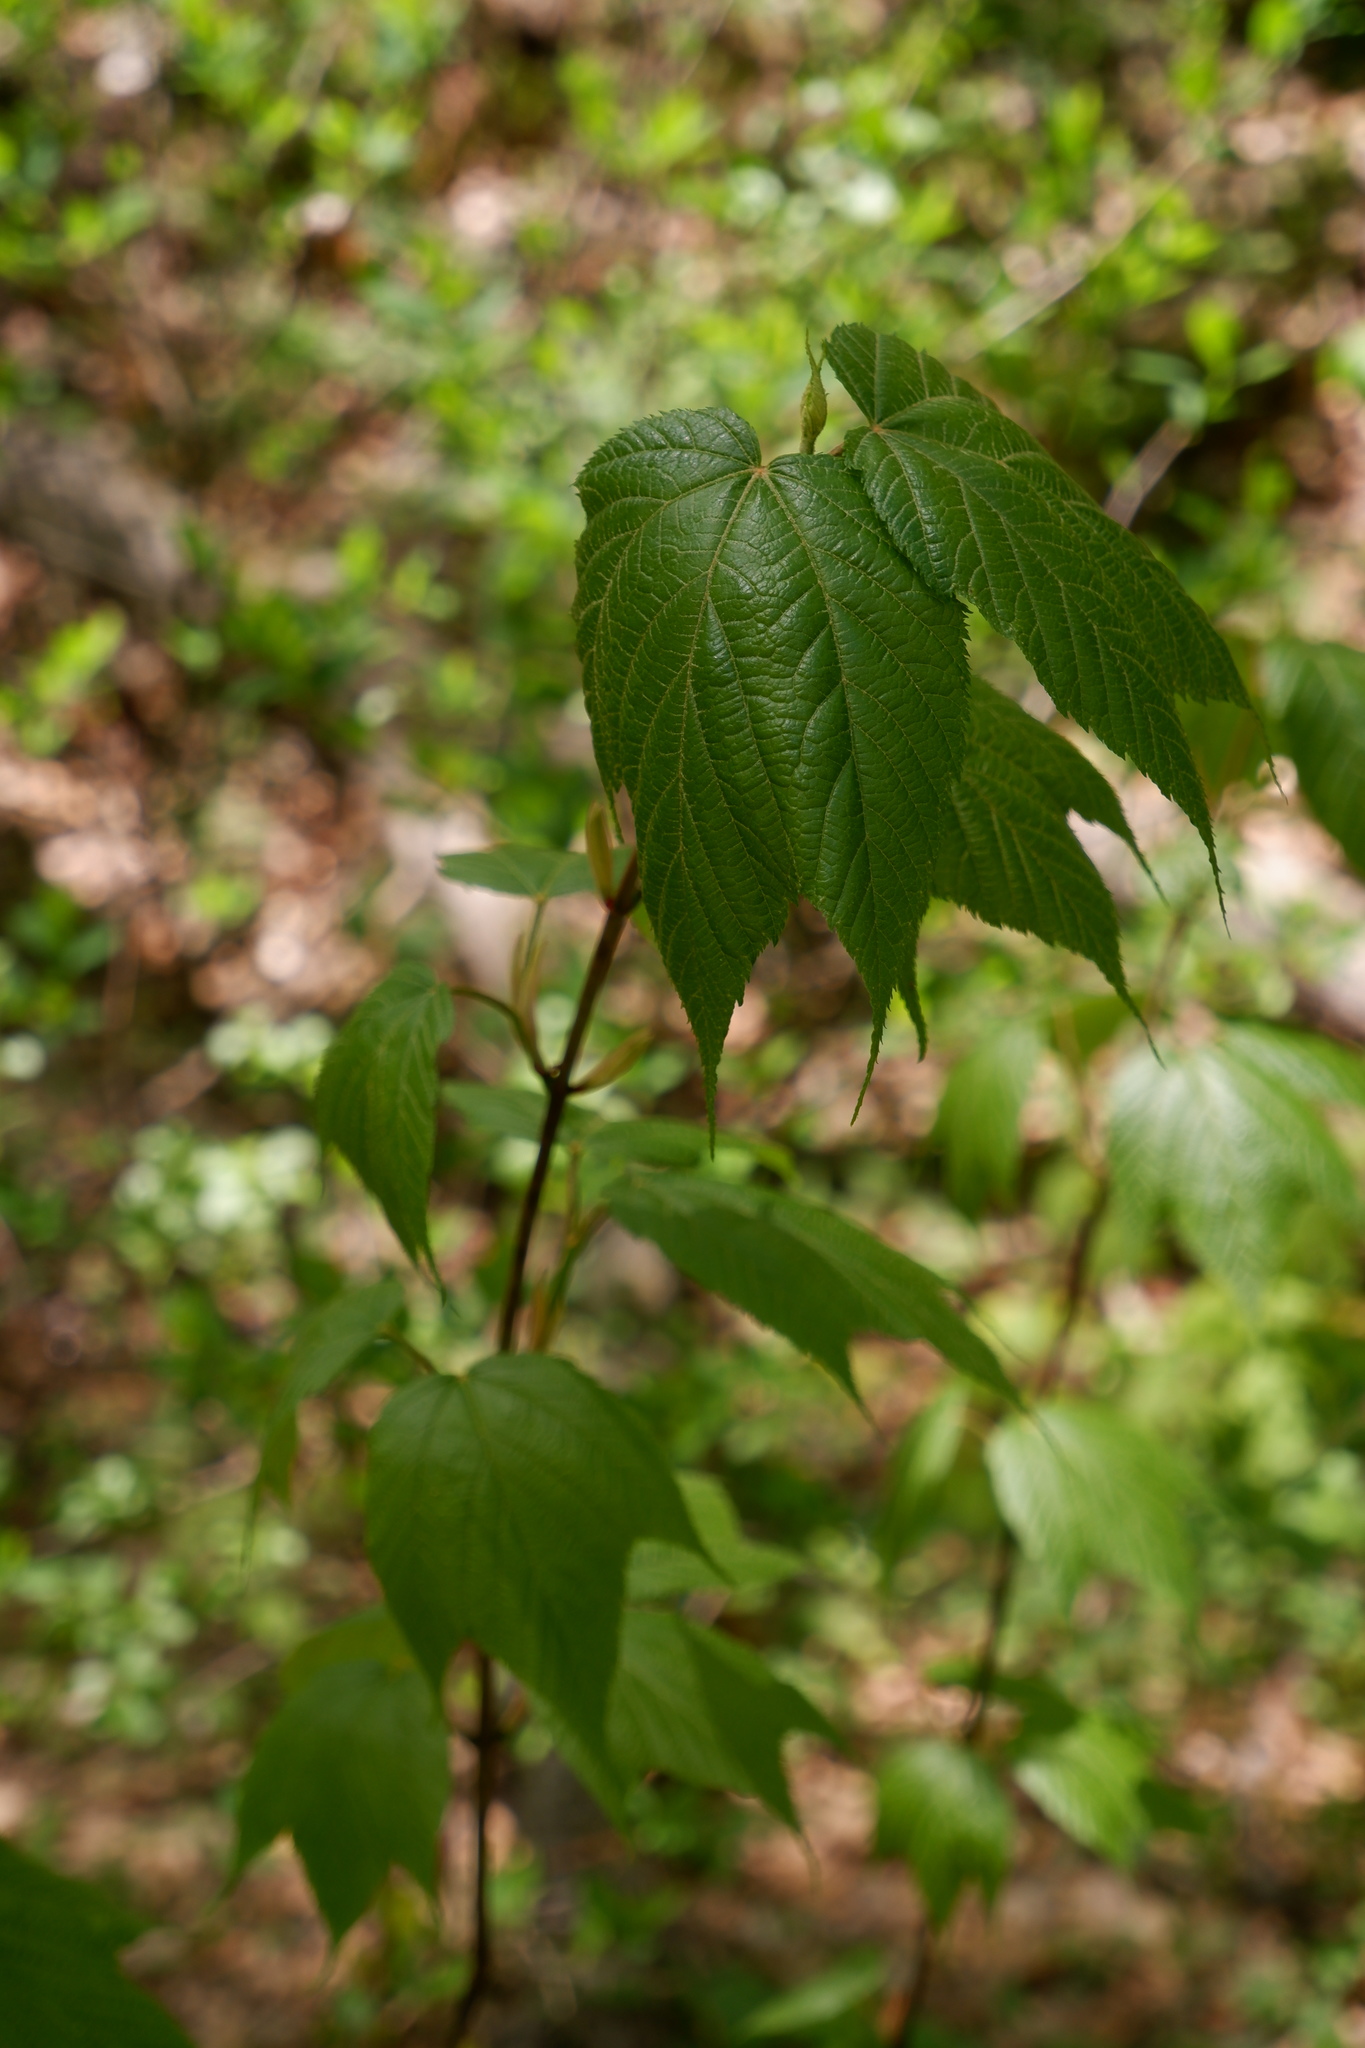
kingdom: Plantae
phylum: Tracheophyta
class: Magnoliopsida
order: Sapindales
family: Sapindaceae
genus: Acer
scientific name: Acer pensylvanicum
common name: Moosewood
